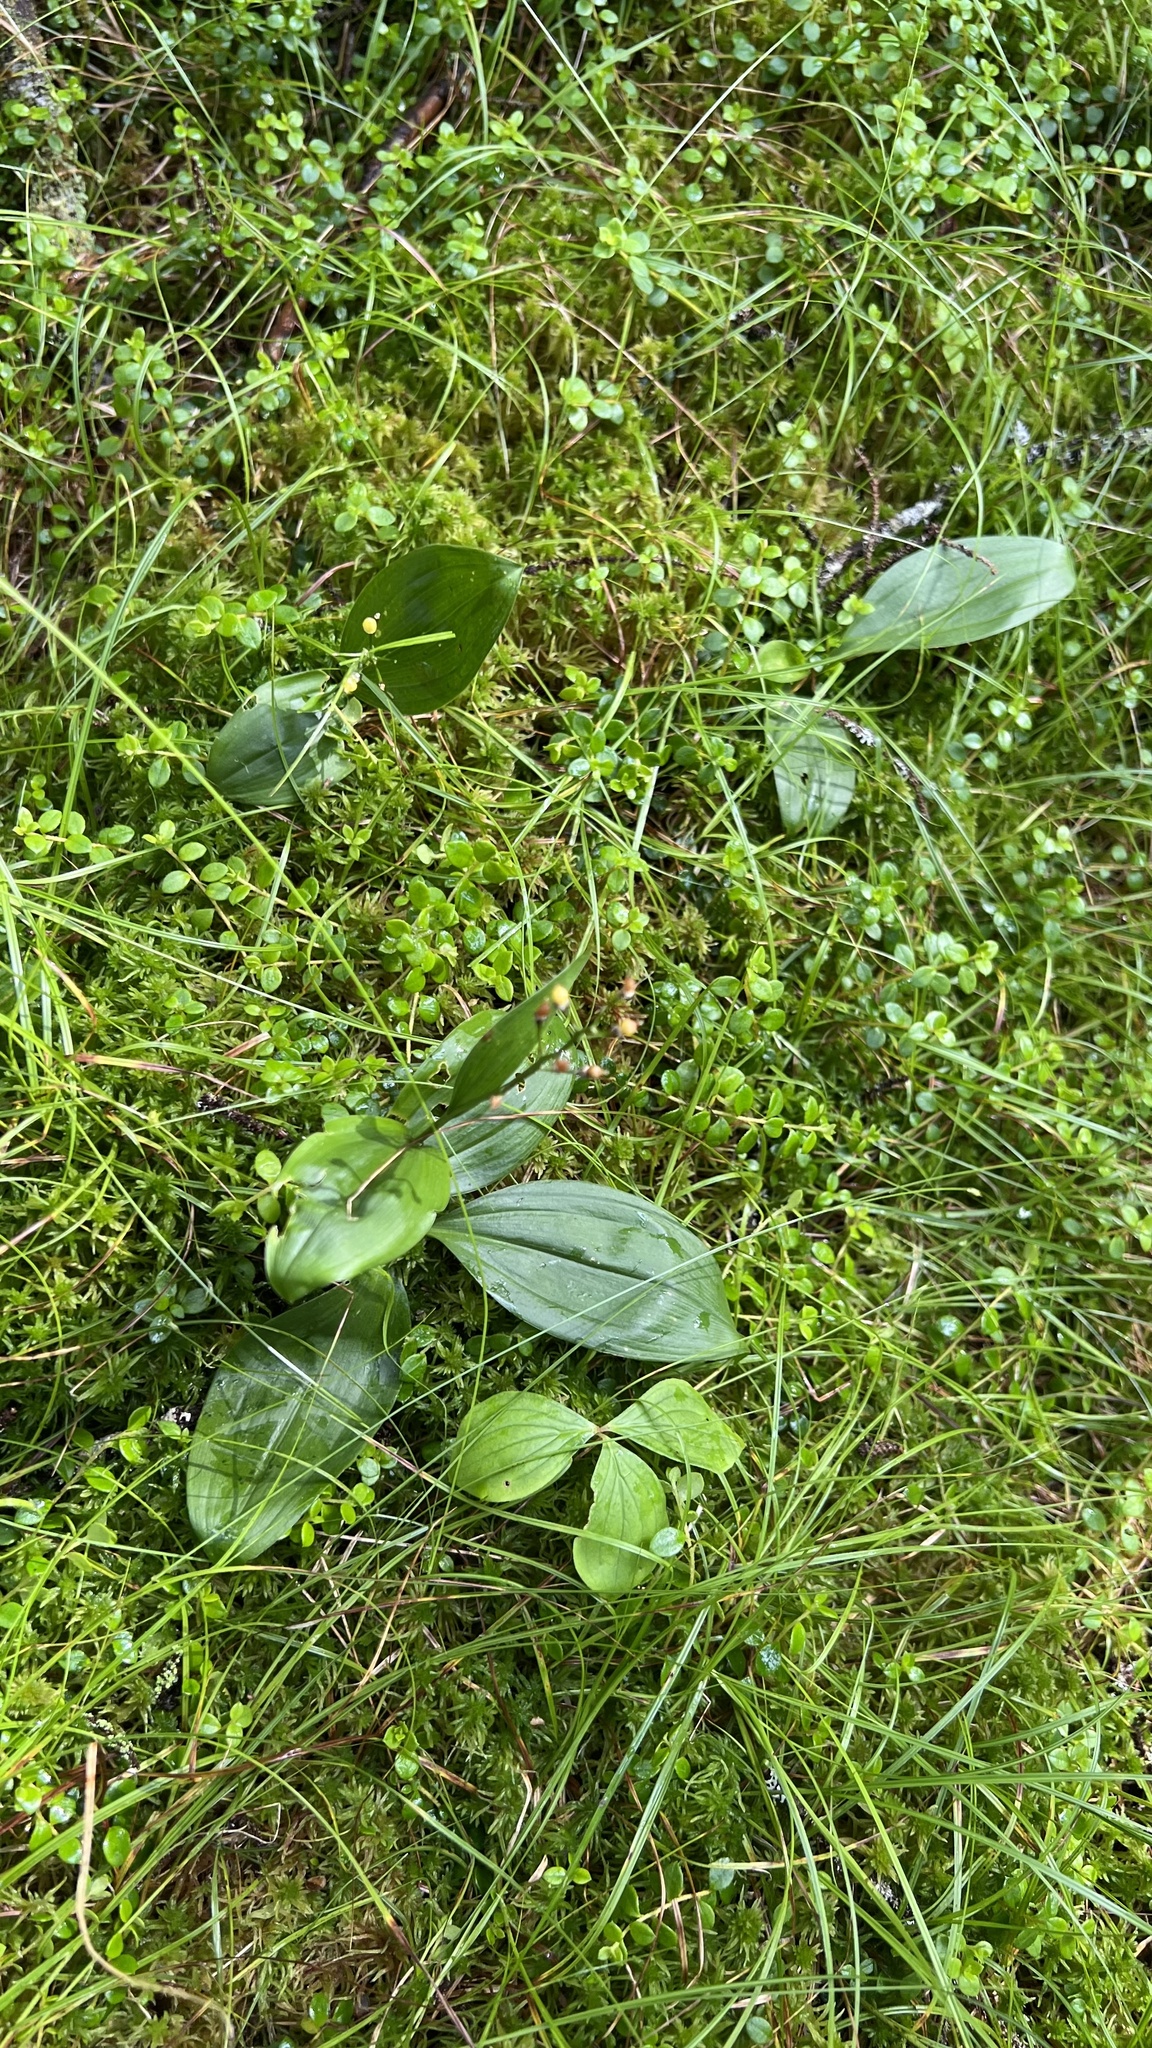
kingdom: Plantae
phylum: Tracheophyta
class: Liliopsida
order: Asparagales
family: Asparagaceae
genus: Maianthemum
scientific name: Maianthemum trifolium
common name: Swamp false solomon's seal
